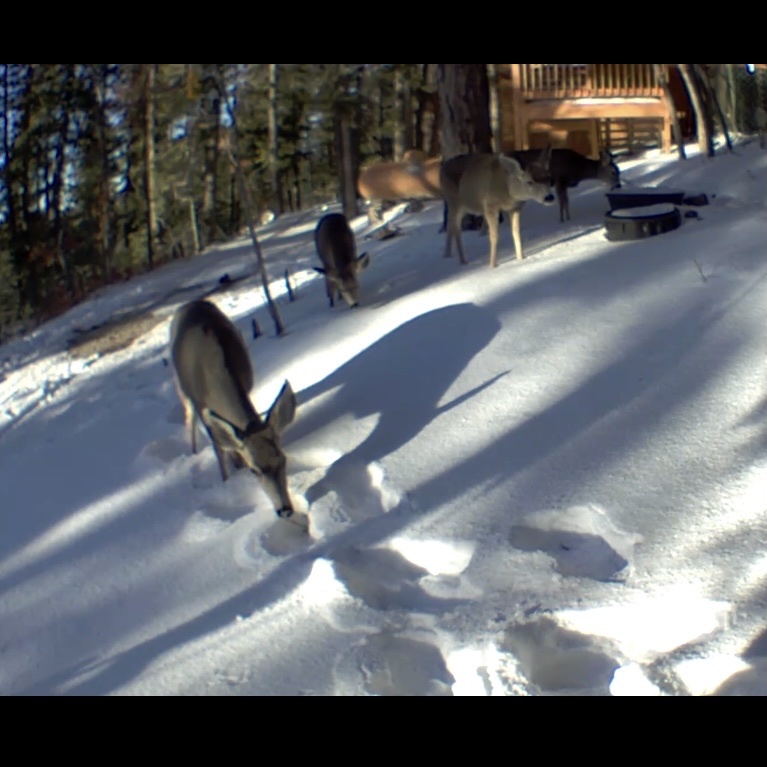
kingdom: Animalia
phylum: Chordata
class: Mammalia
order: Artiodactyla
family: Cervidae
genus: Odocoileus
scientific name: Odocoileus hemionus
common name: Mule deer
